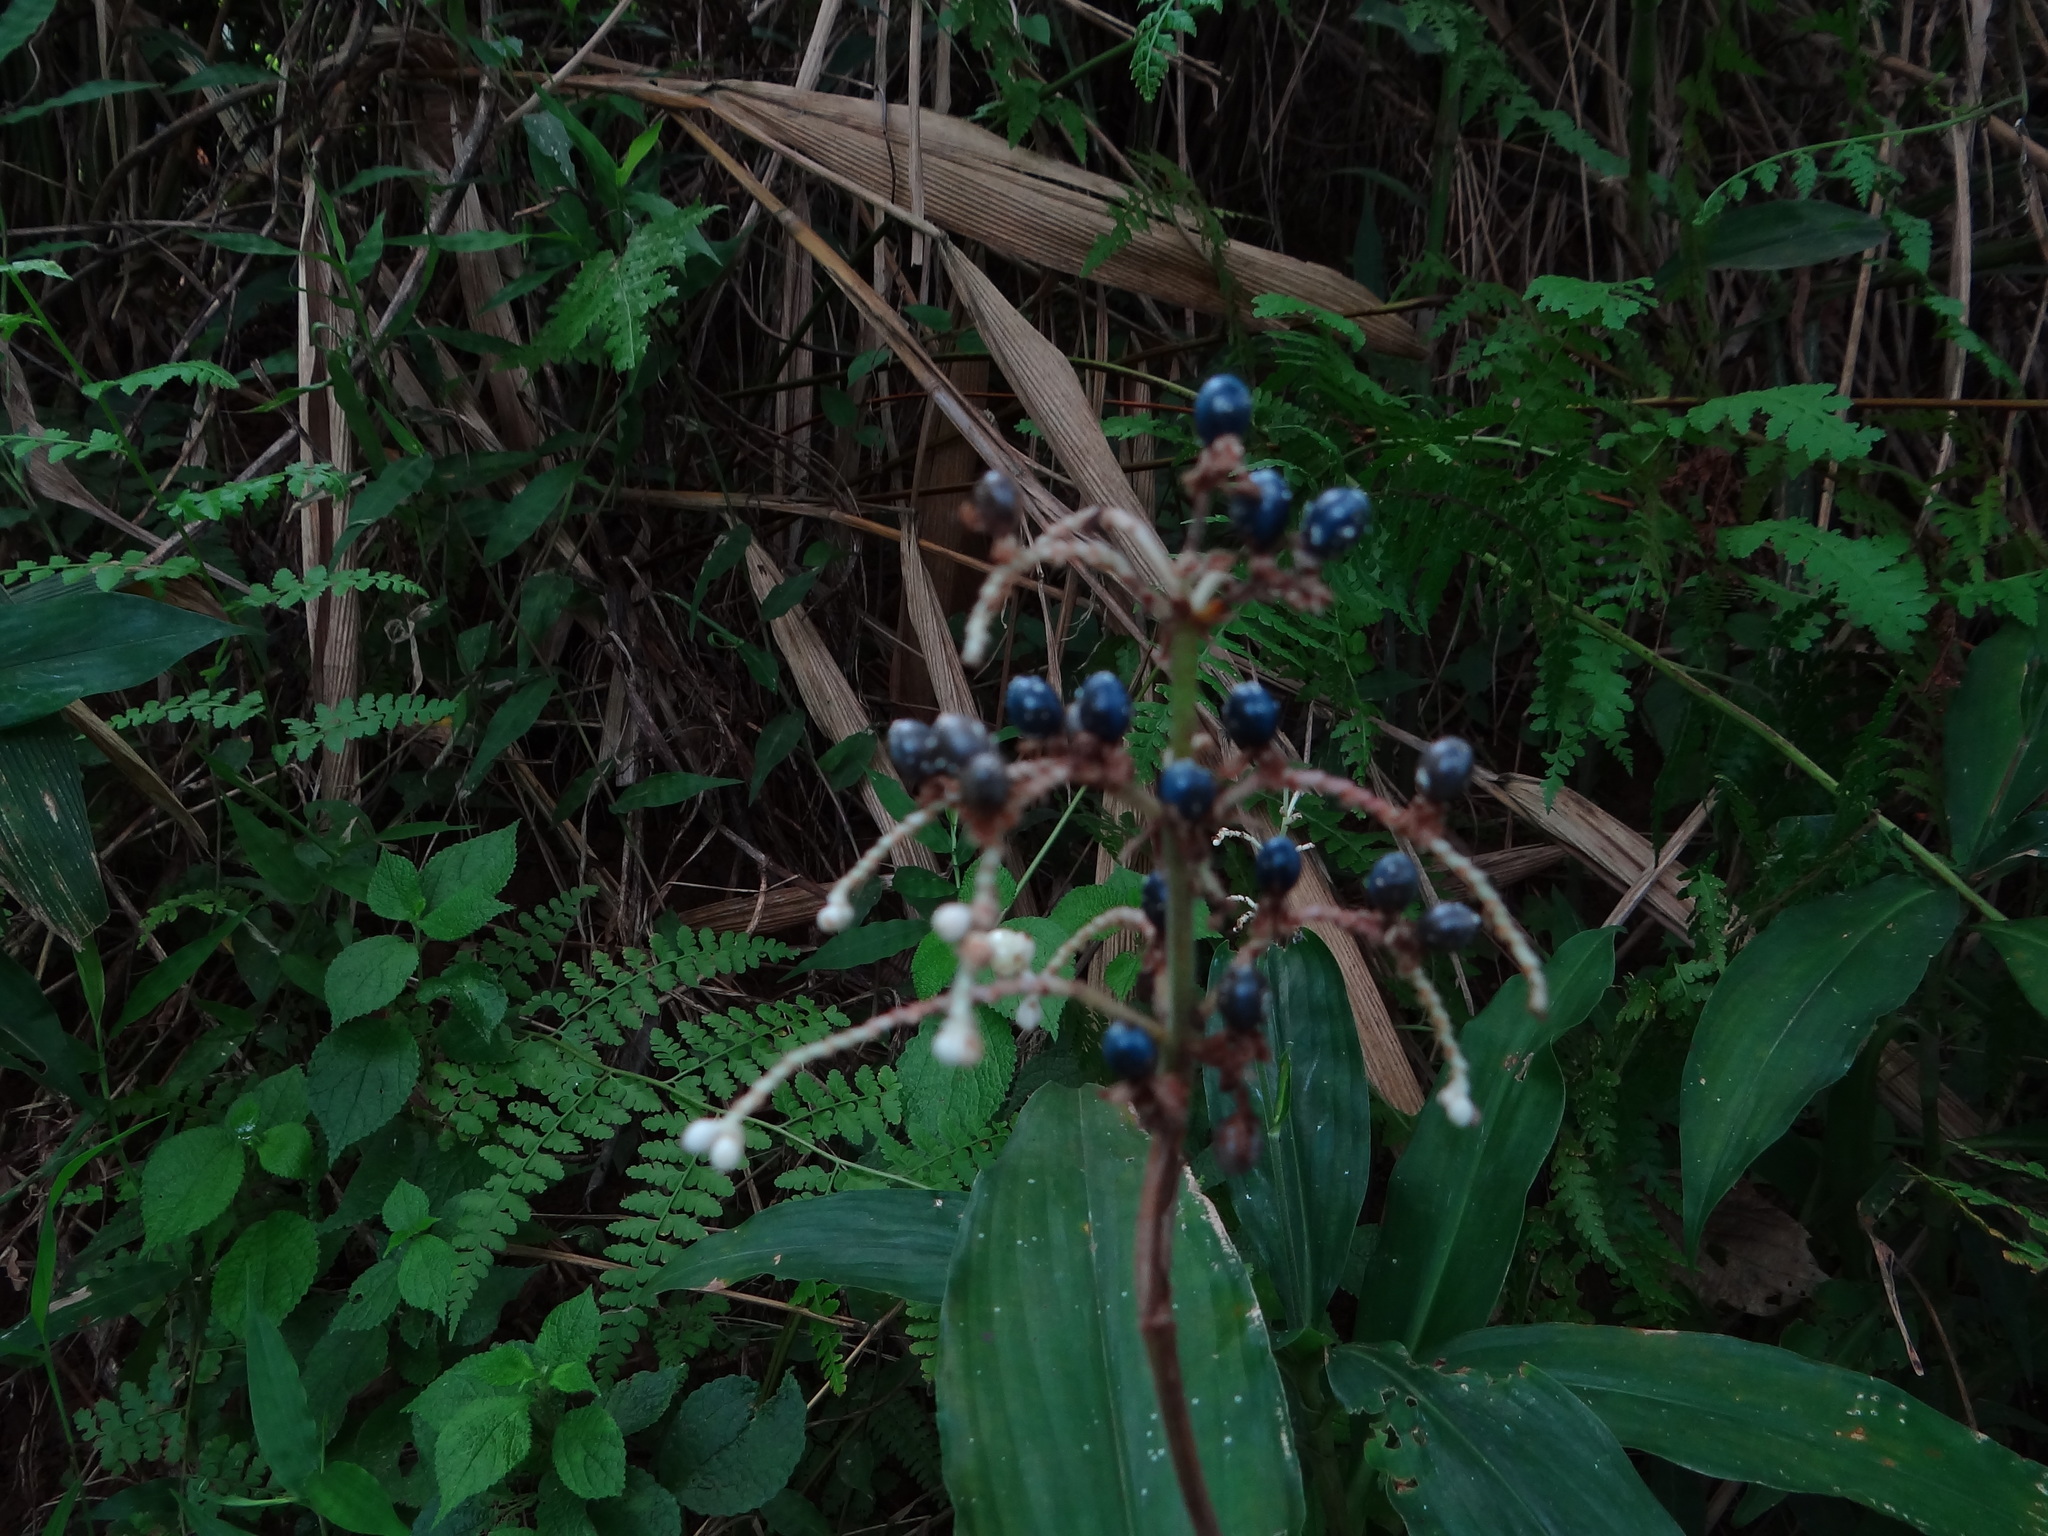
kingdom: Plantae
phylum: Tracheophyta
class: Liliopsida
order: Commelinales
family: Commelinaceae
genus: Pollia
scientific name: Pollia japonica
